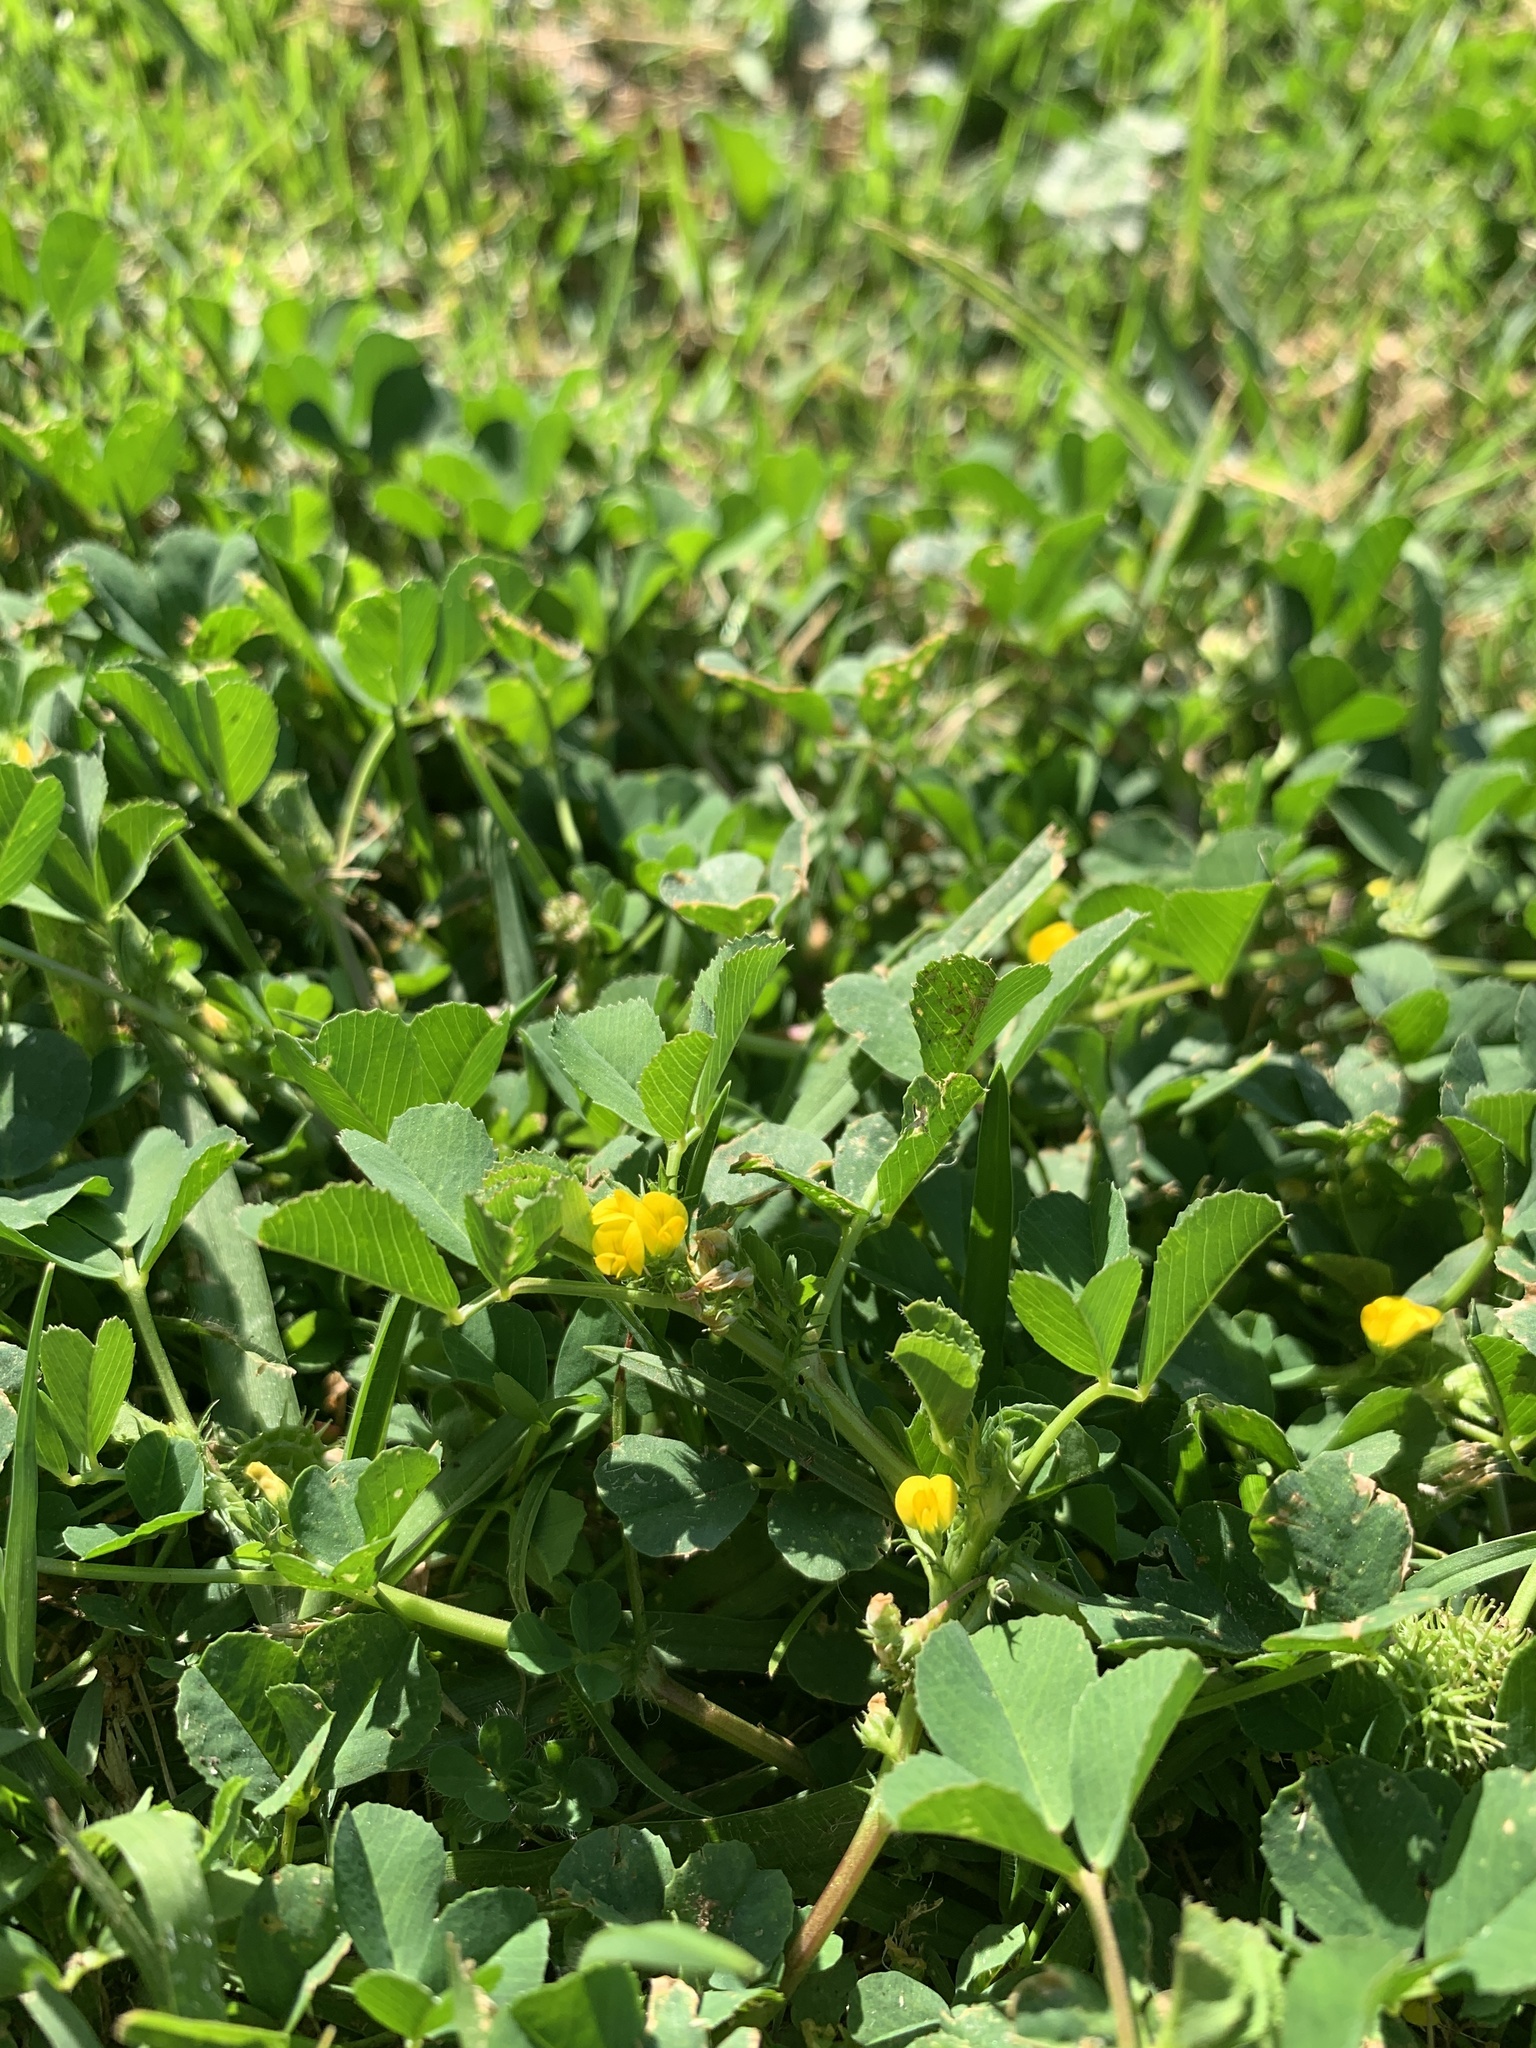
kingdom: Plantae
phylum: Tracheophyta
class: Magnoliopsida
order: Fabales
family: Fabaceae
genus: Medicago
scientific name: Medicago polymorpha
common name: Burclover
